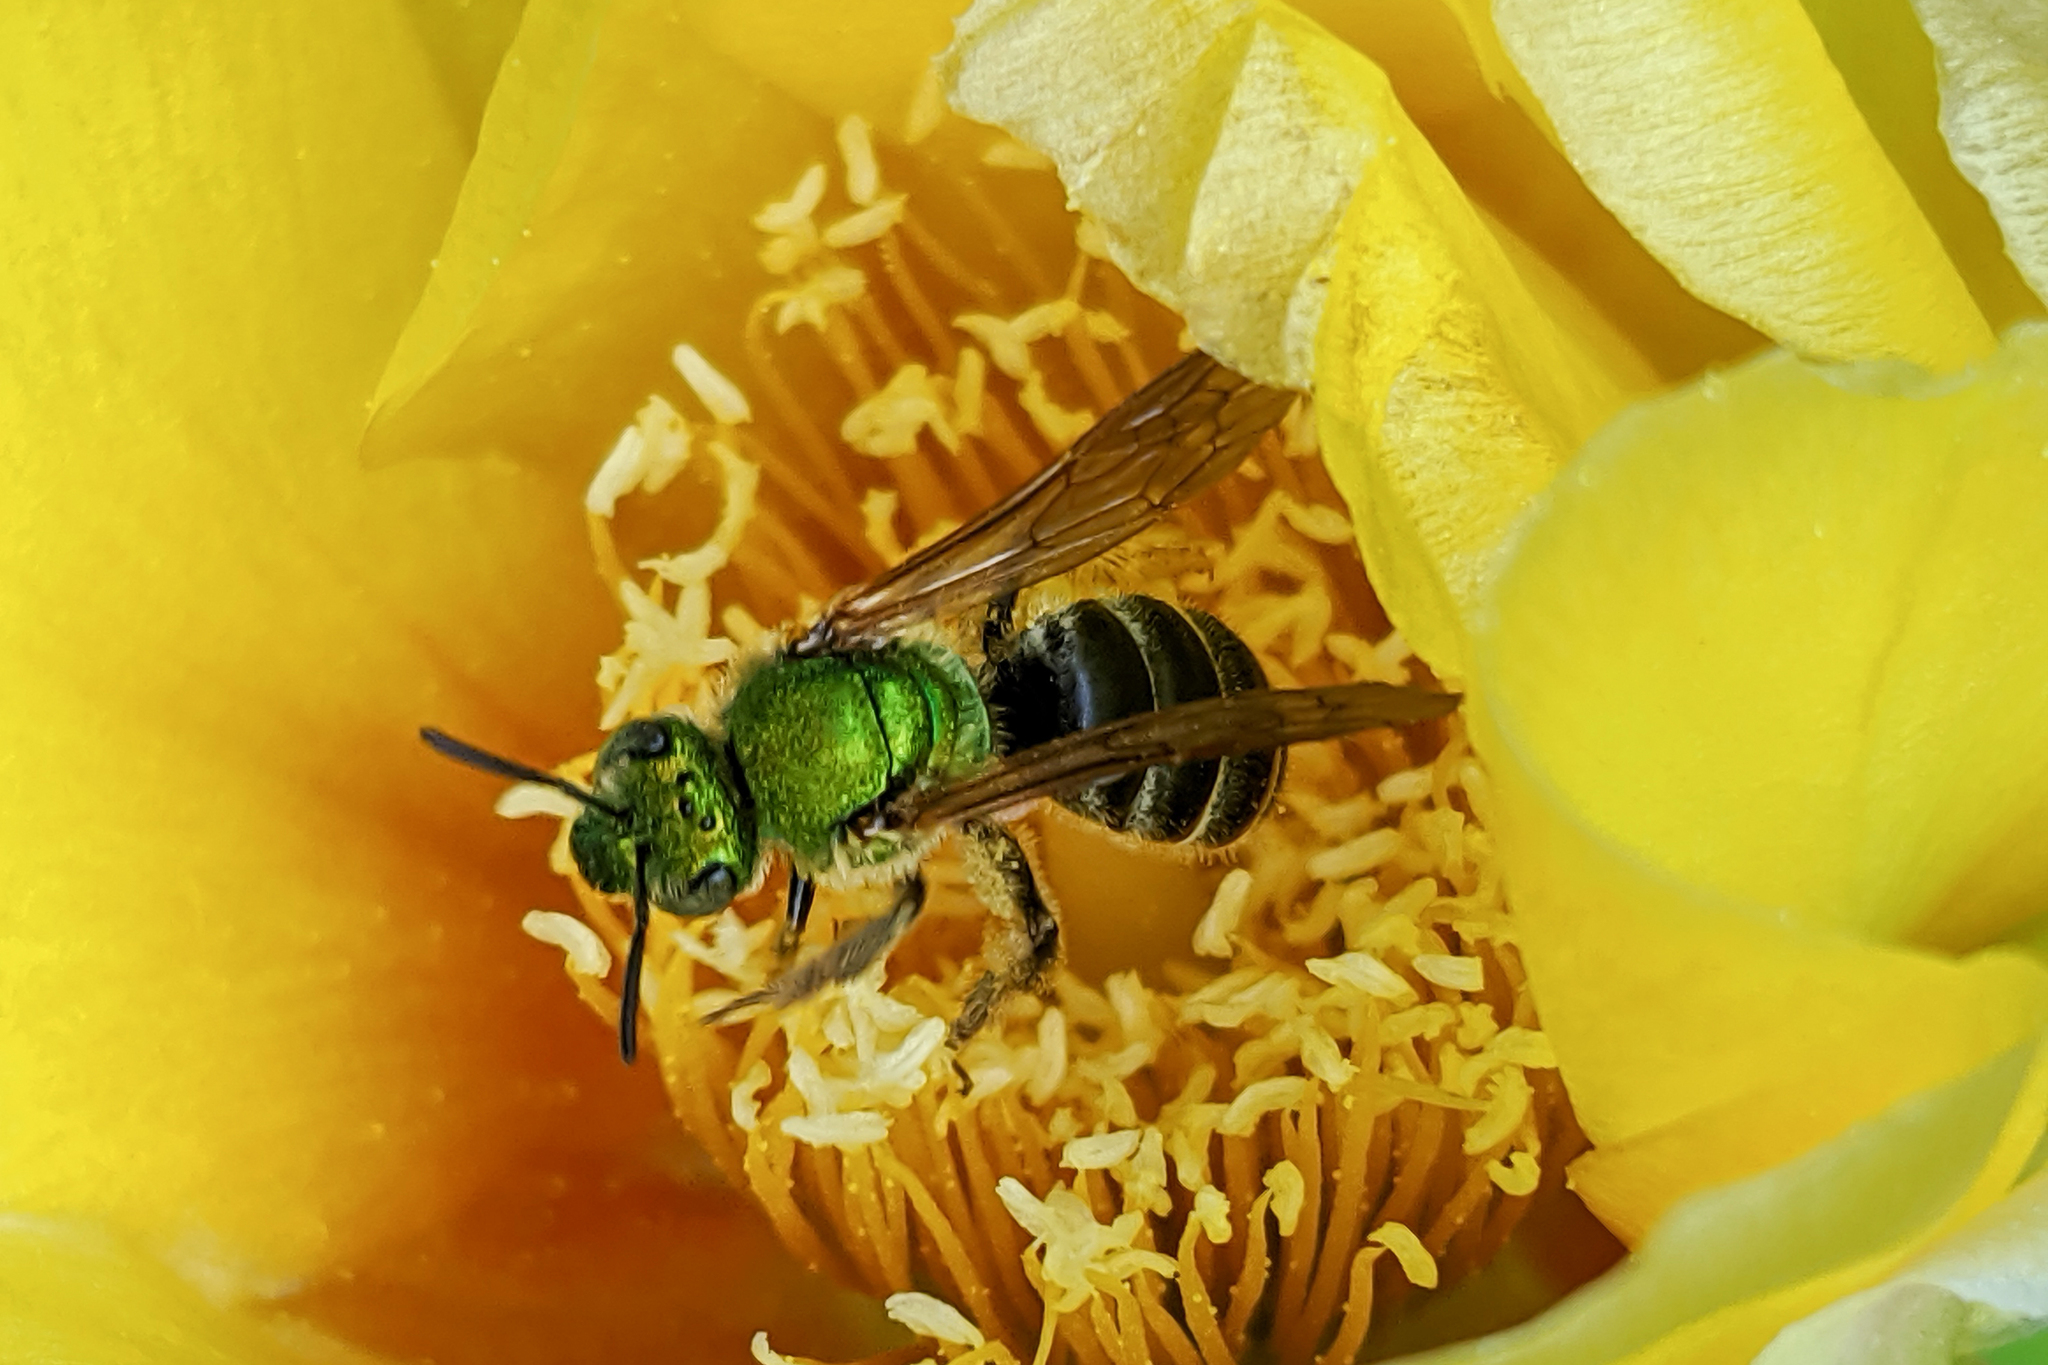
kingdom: Animalia
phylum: Arthropoda
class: Insecta
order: Hymenoptera
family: Halictidae
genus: Agapostemon
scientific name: Agapostemon virescens
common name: Bicolored striped sweat bee
